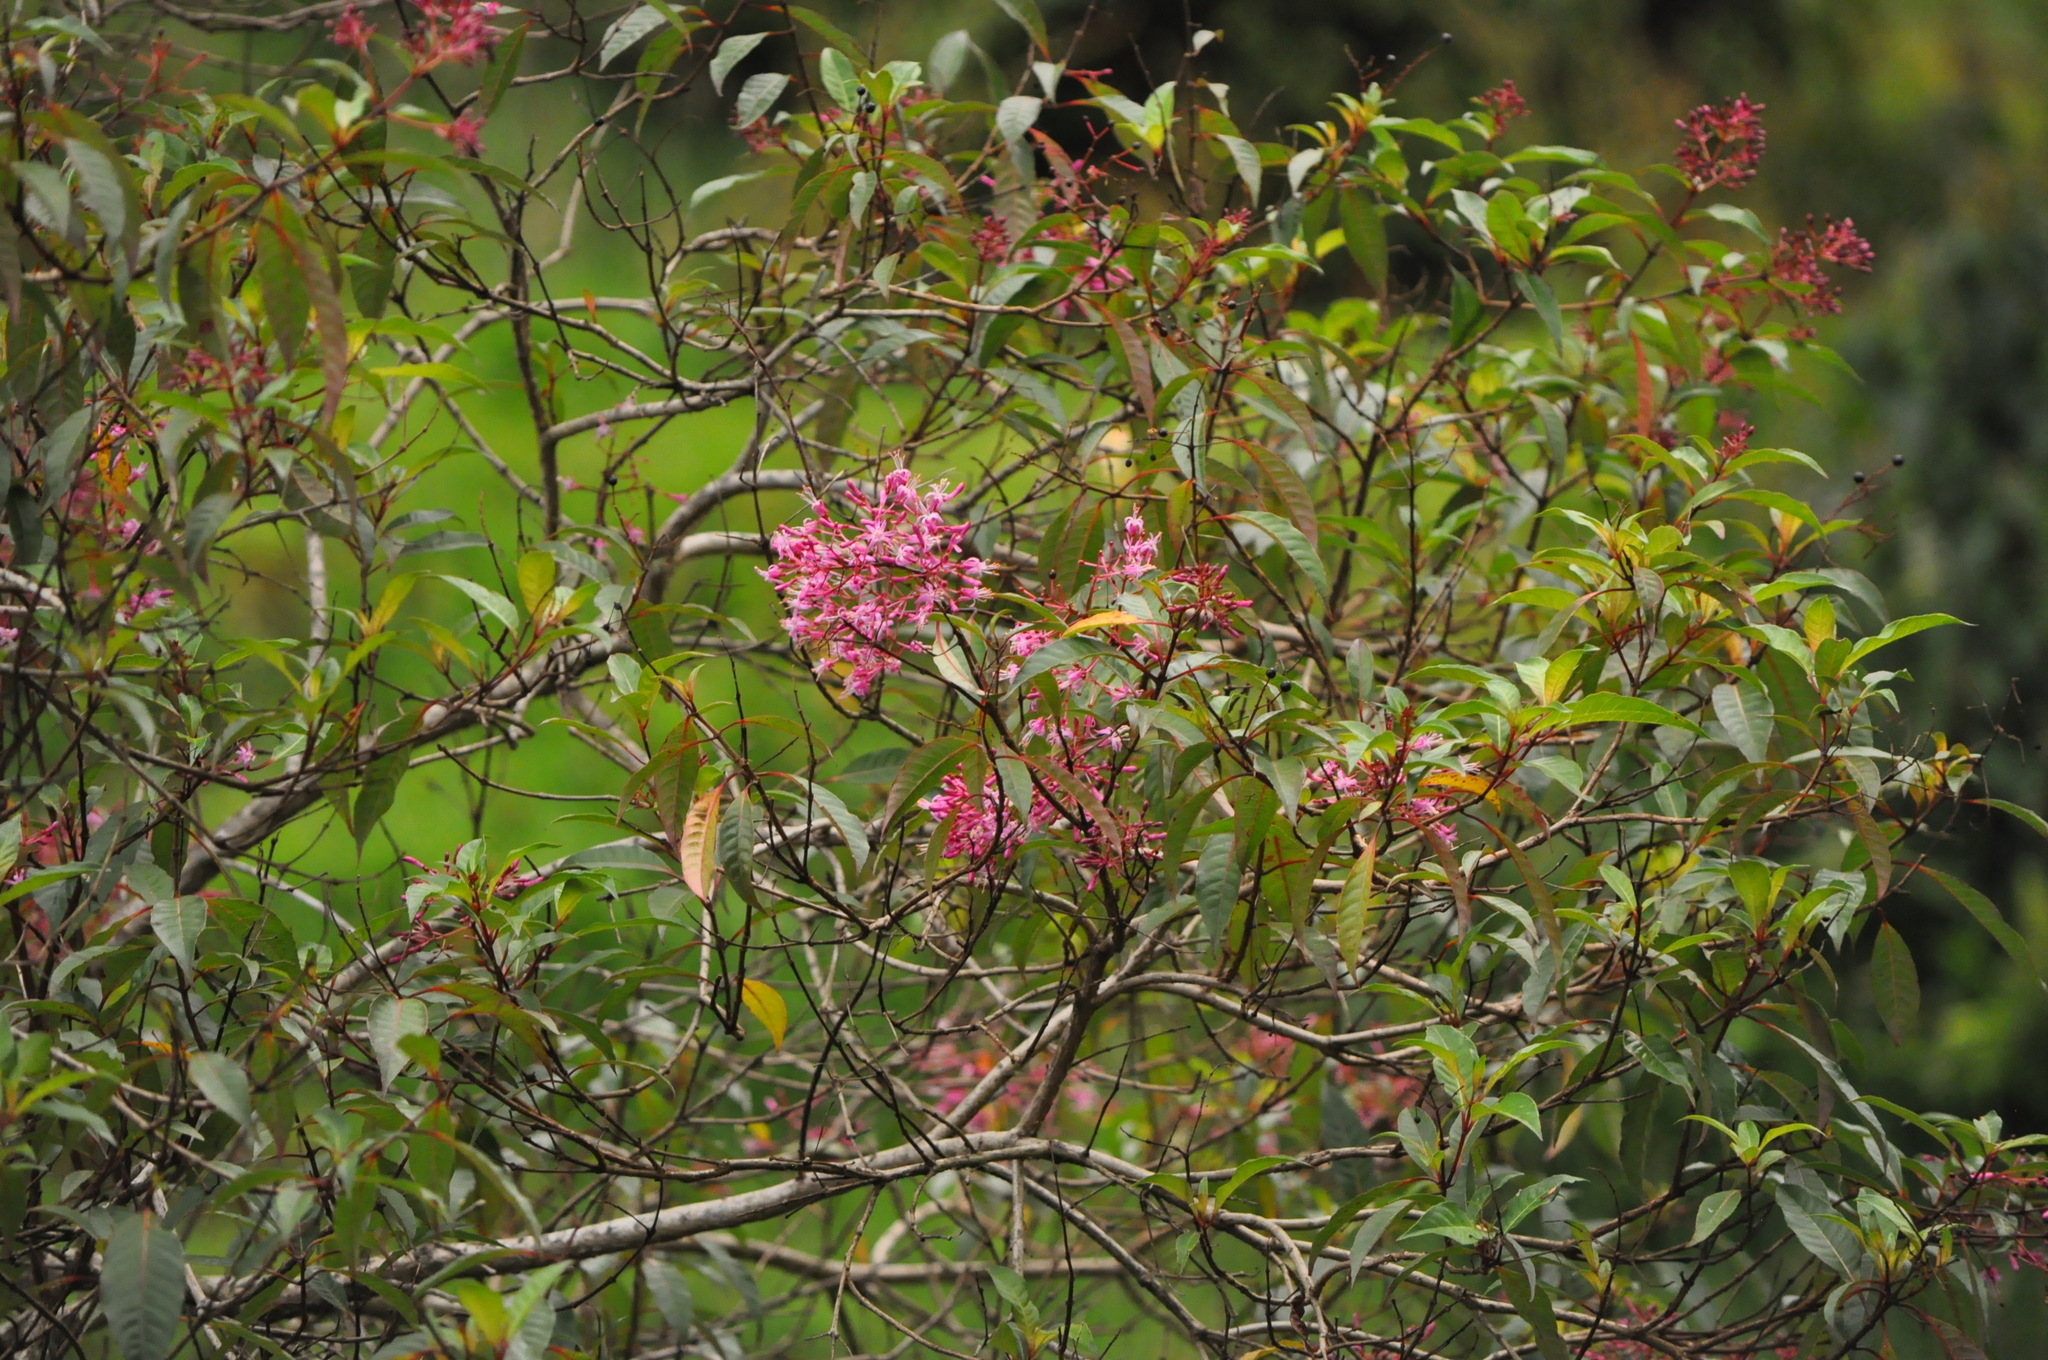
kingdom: Plantae
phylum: Tracheophyta
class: Magnoliopsida
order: Myrtales
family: Onagraceae
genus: Fuchsia
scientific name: Fuchsia paniculata
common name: Shrubby fuchsia
